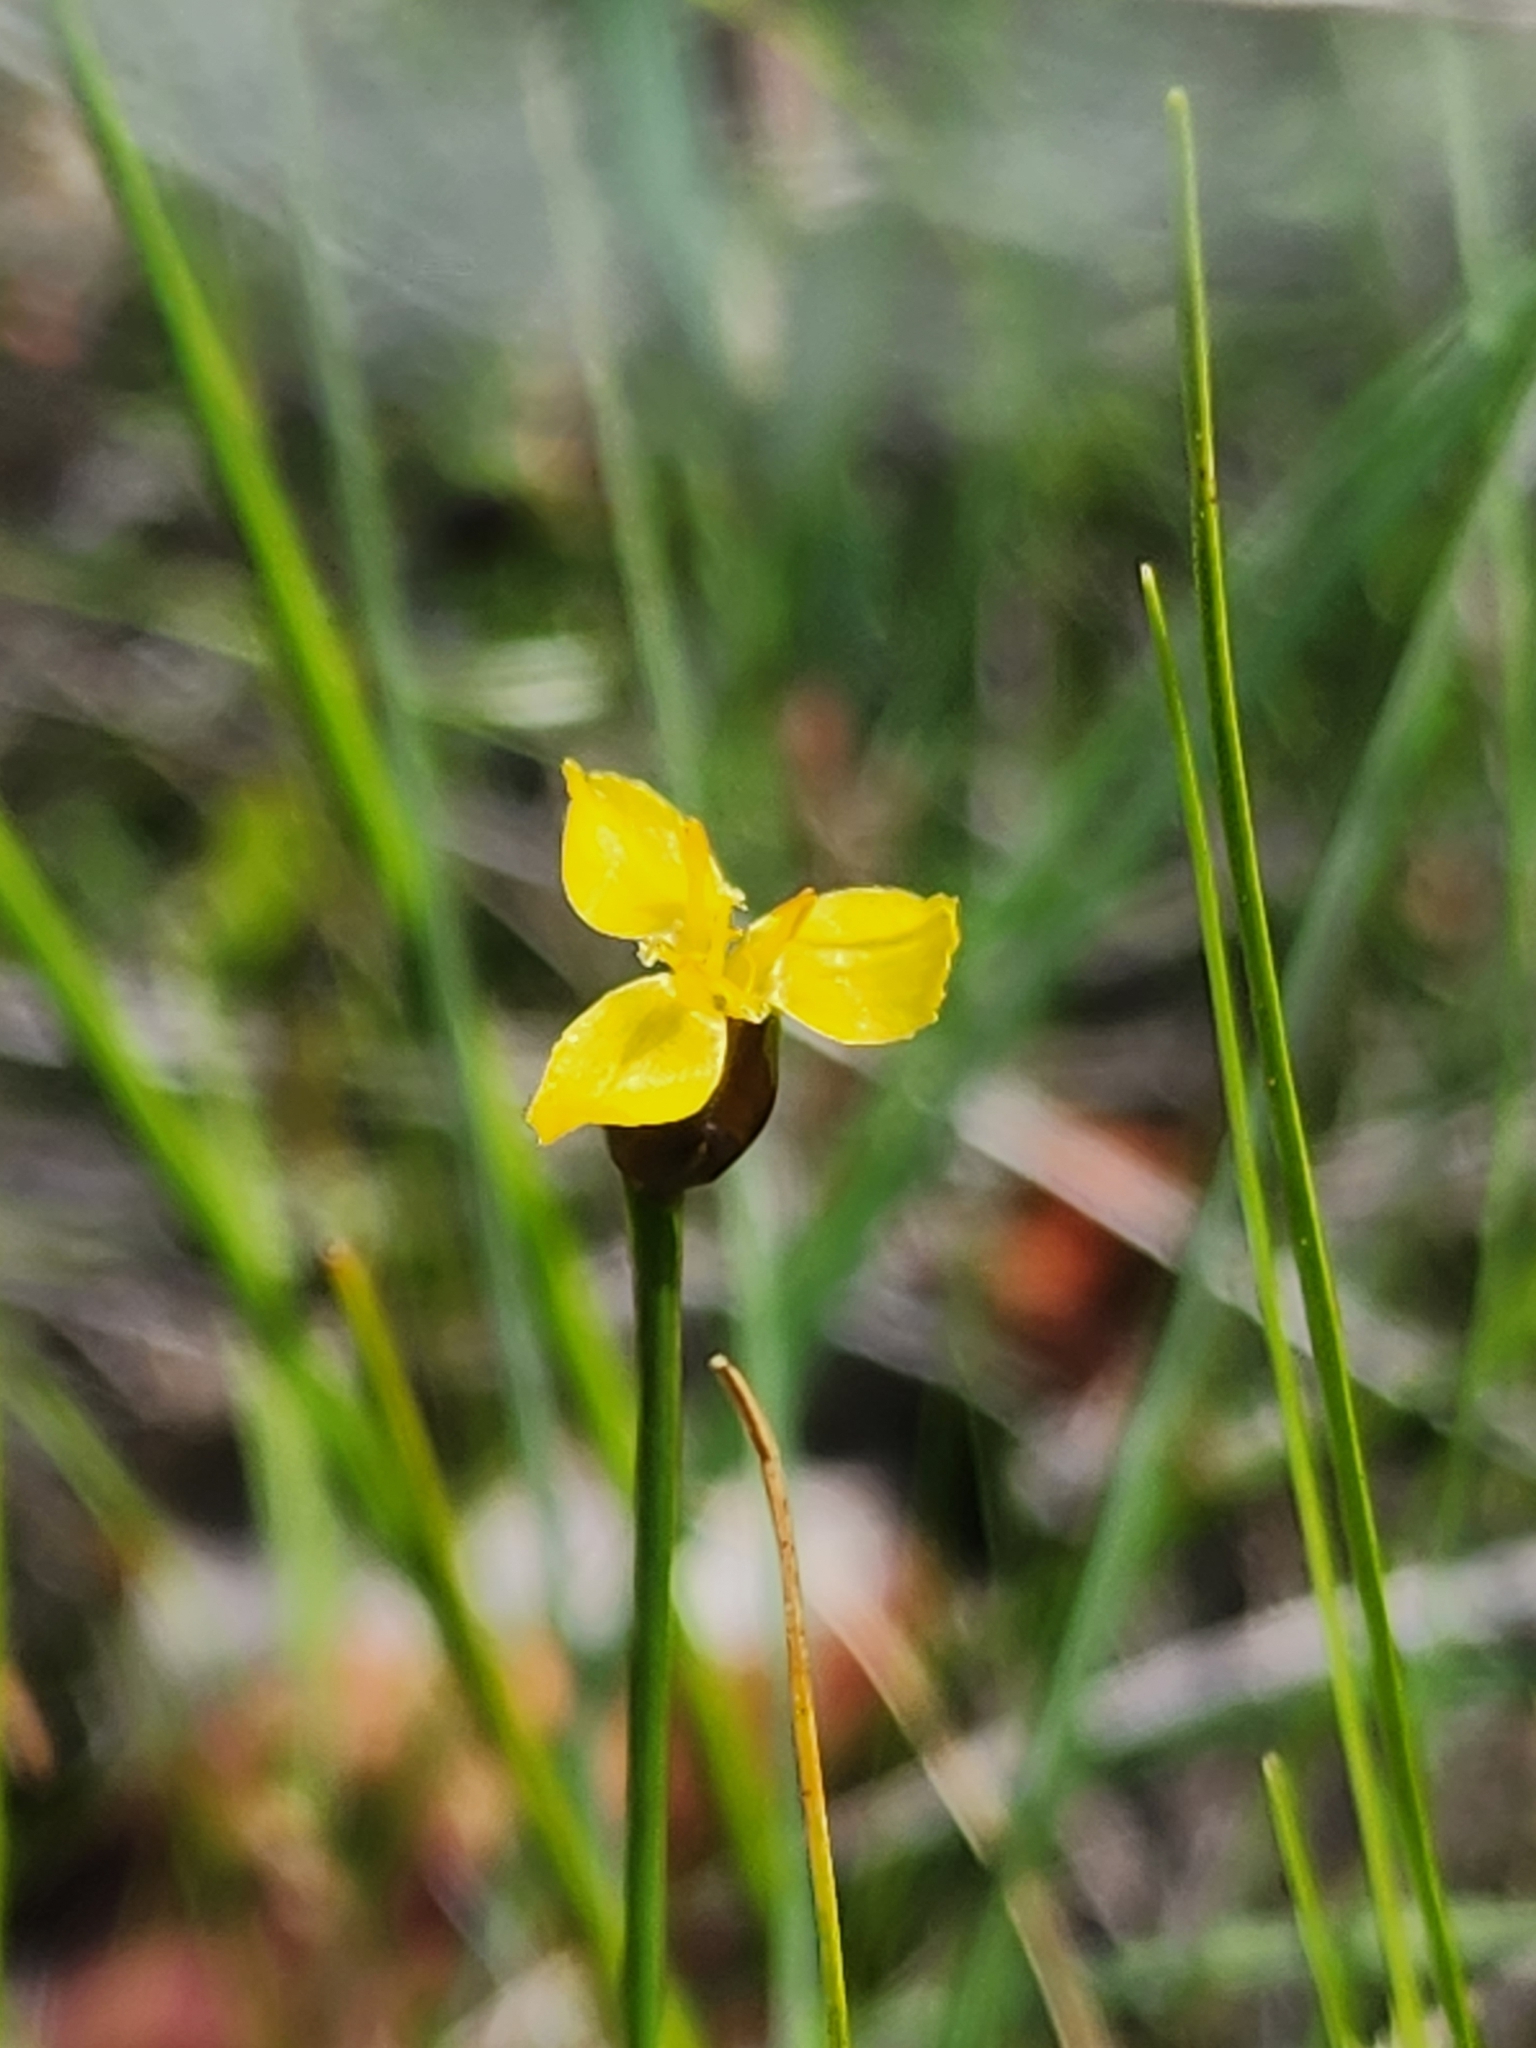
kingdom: Plantae
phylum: Tracheophyta
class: Liliopsida
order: Poales
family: Xyridaceae
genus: Xyris
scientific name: Xyris montana
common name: Northern yellow-eyed-grass
